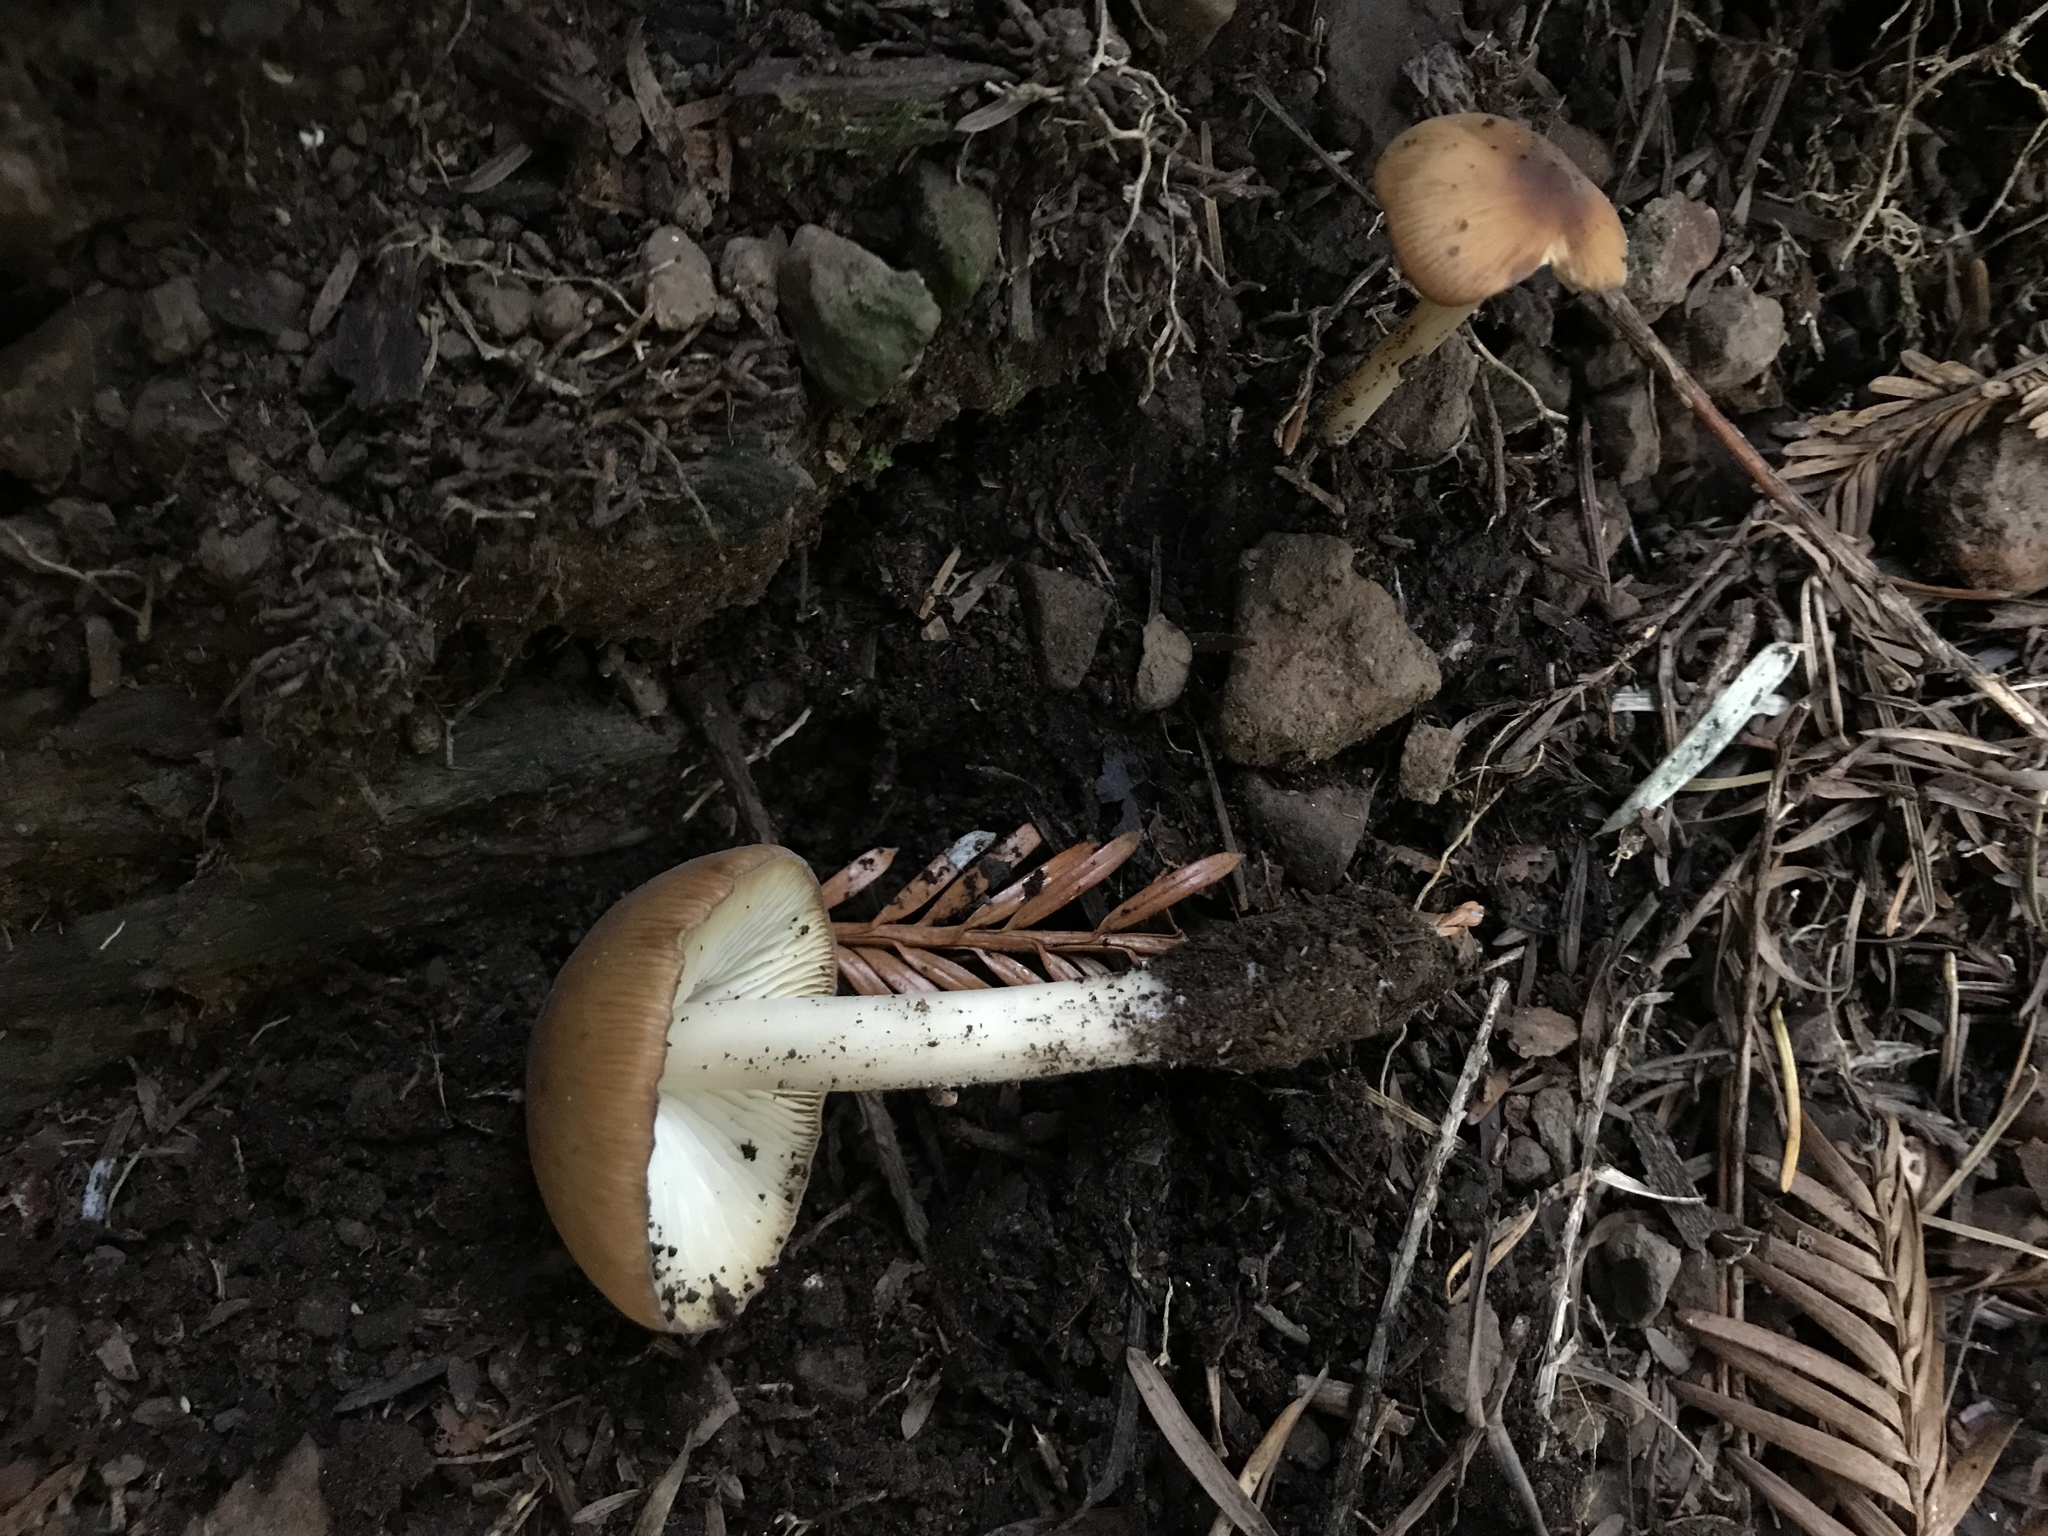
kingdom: Fungi
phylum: Basidiomycota
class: Agaricomycetes
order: Agaricales
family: Tricholomataceae
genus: Caulorhiza
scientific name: Caulorhiza umbonata
